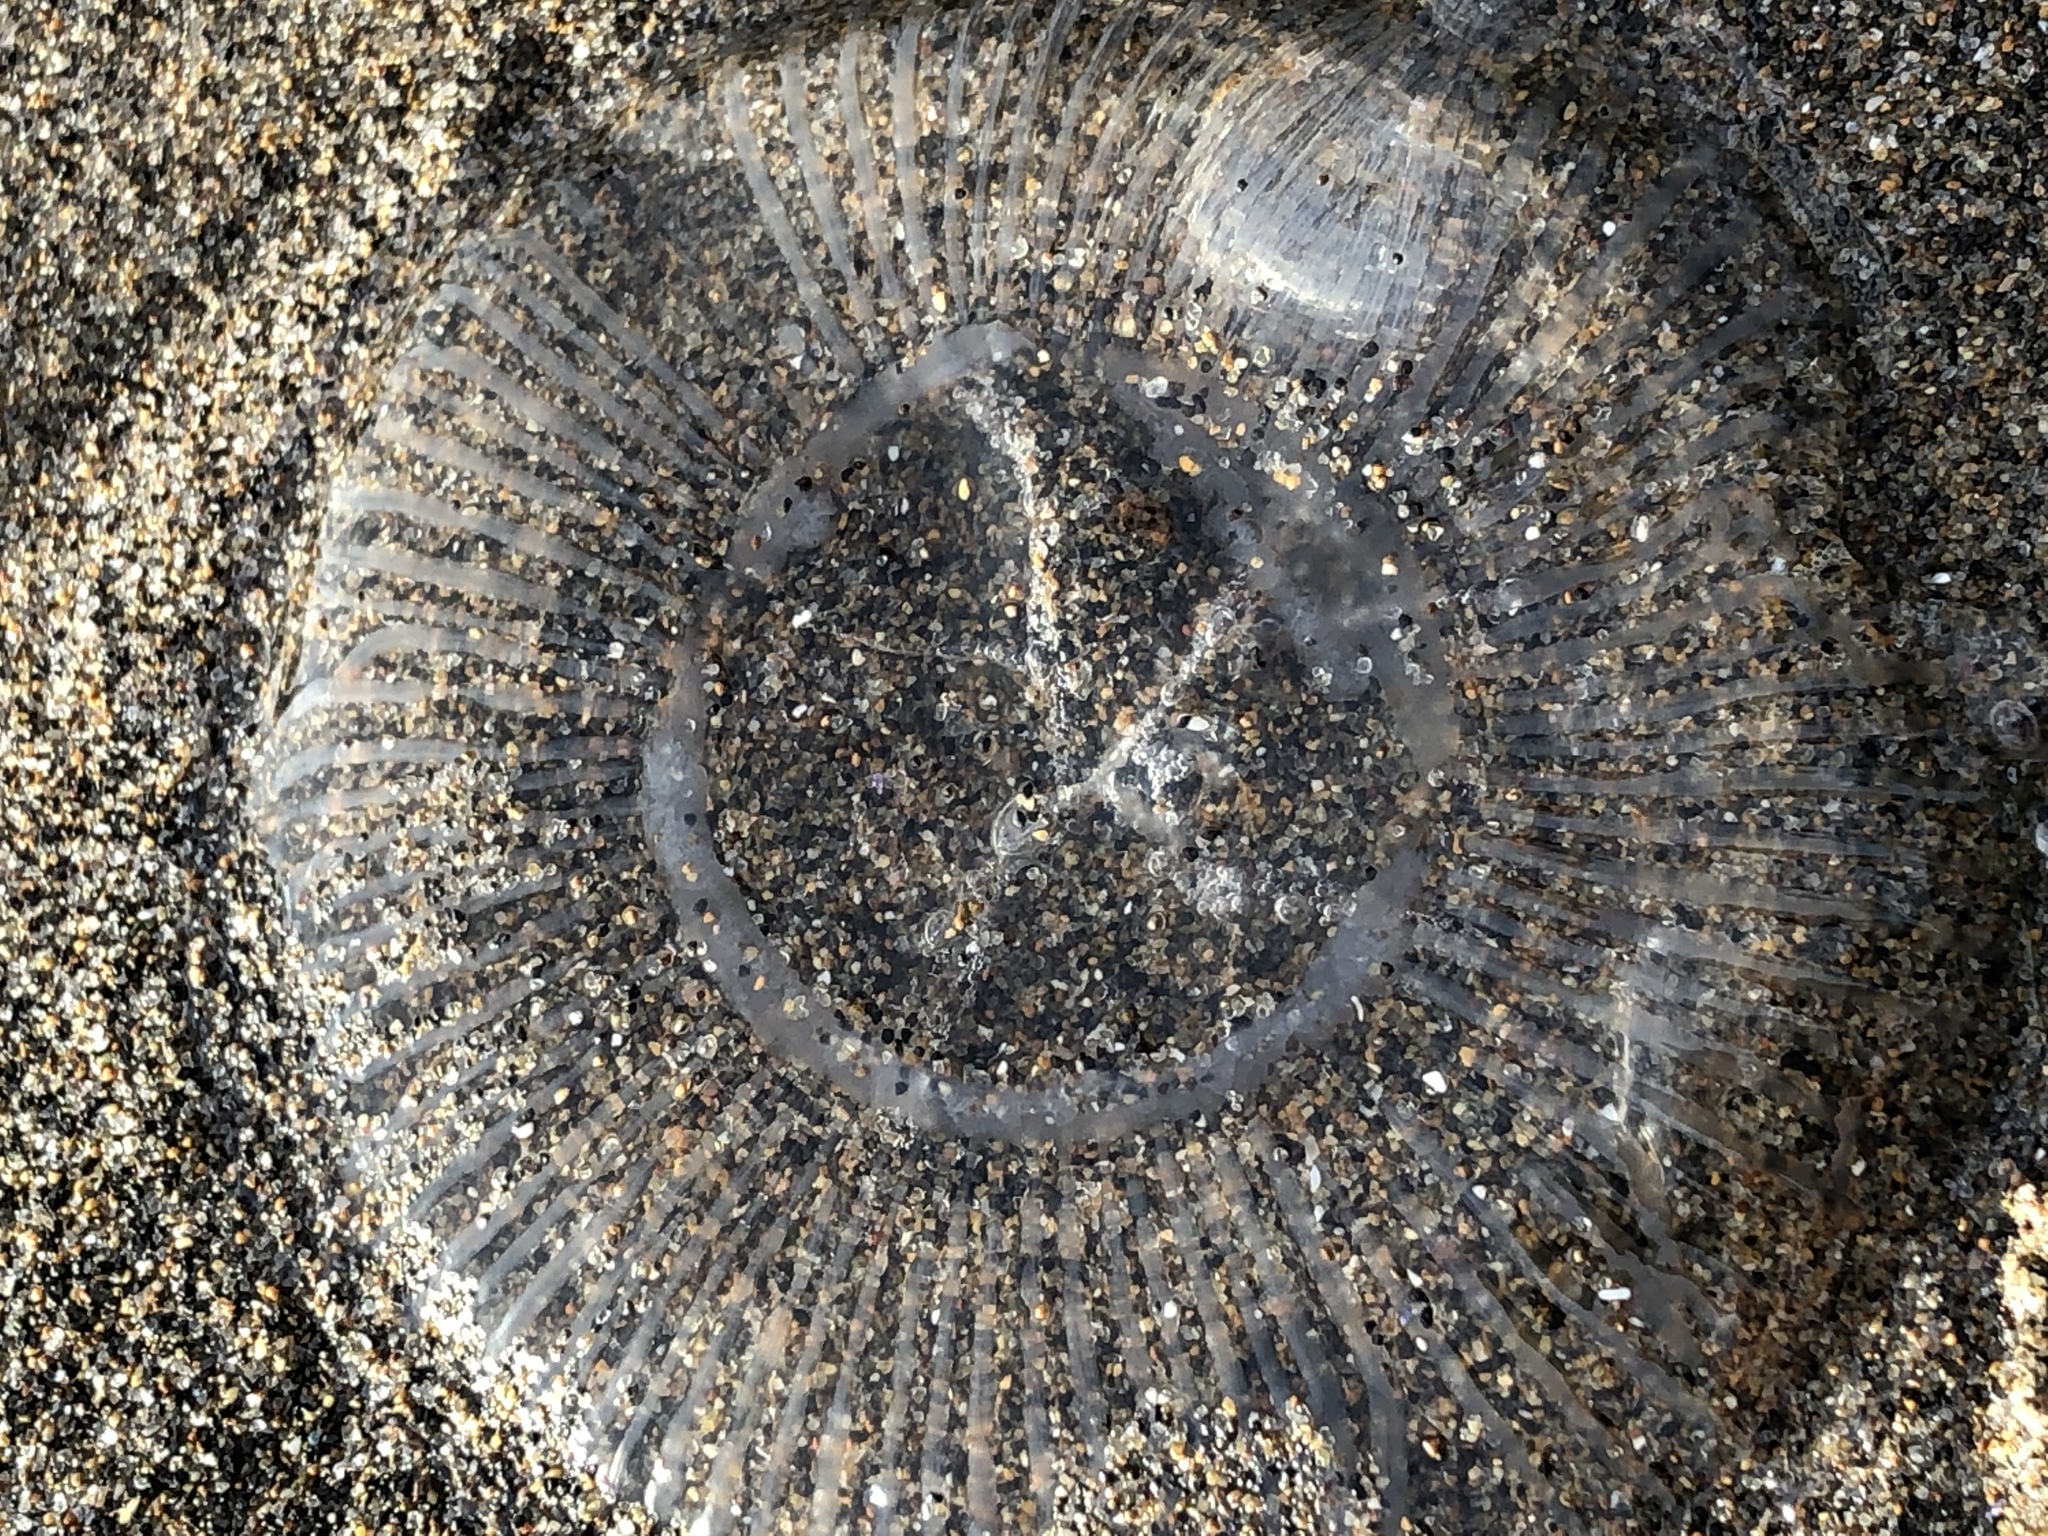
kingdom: Animalia
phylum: Cnidaria
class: Hydrozoa
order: Leptothecata
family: Aequoreidae
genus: Aequorea
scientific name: Aequorea victoria
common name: Water jellyfish
